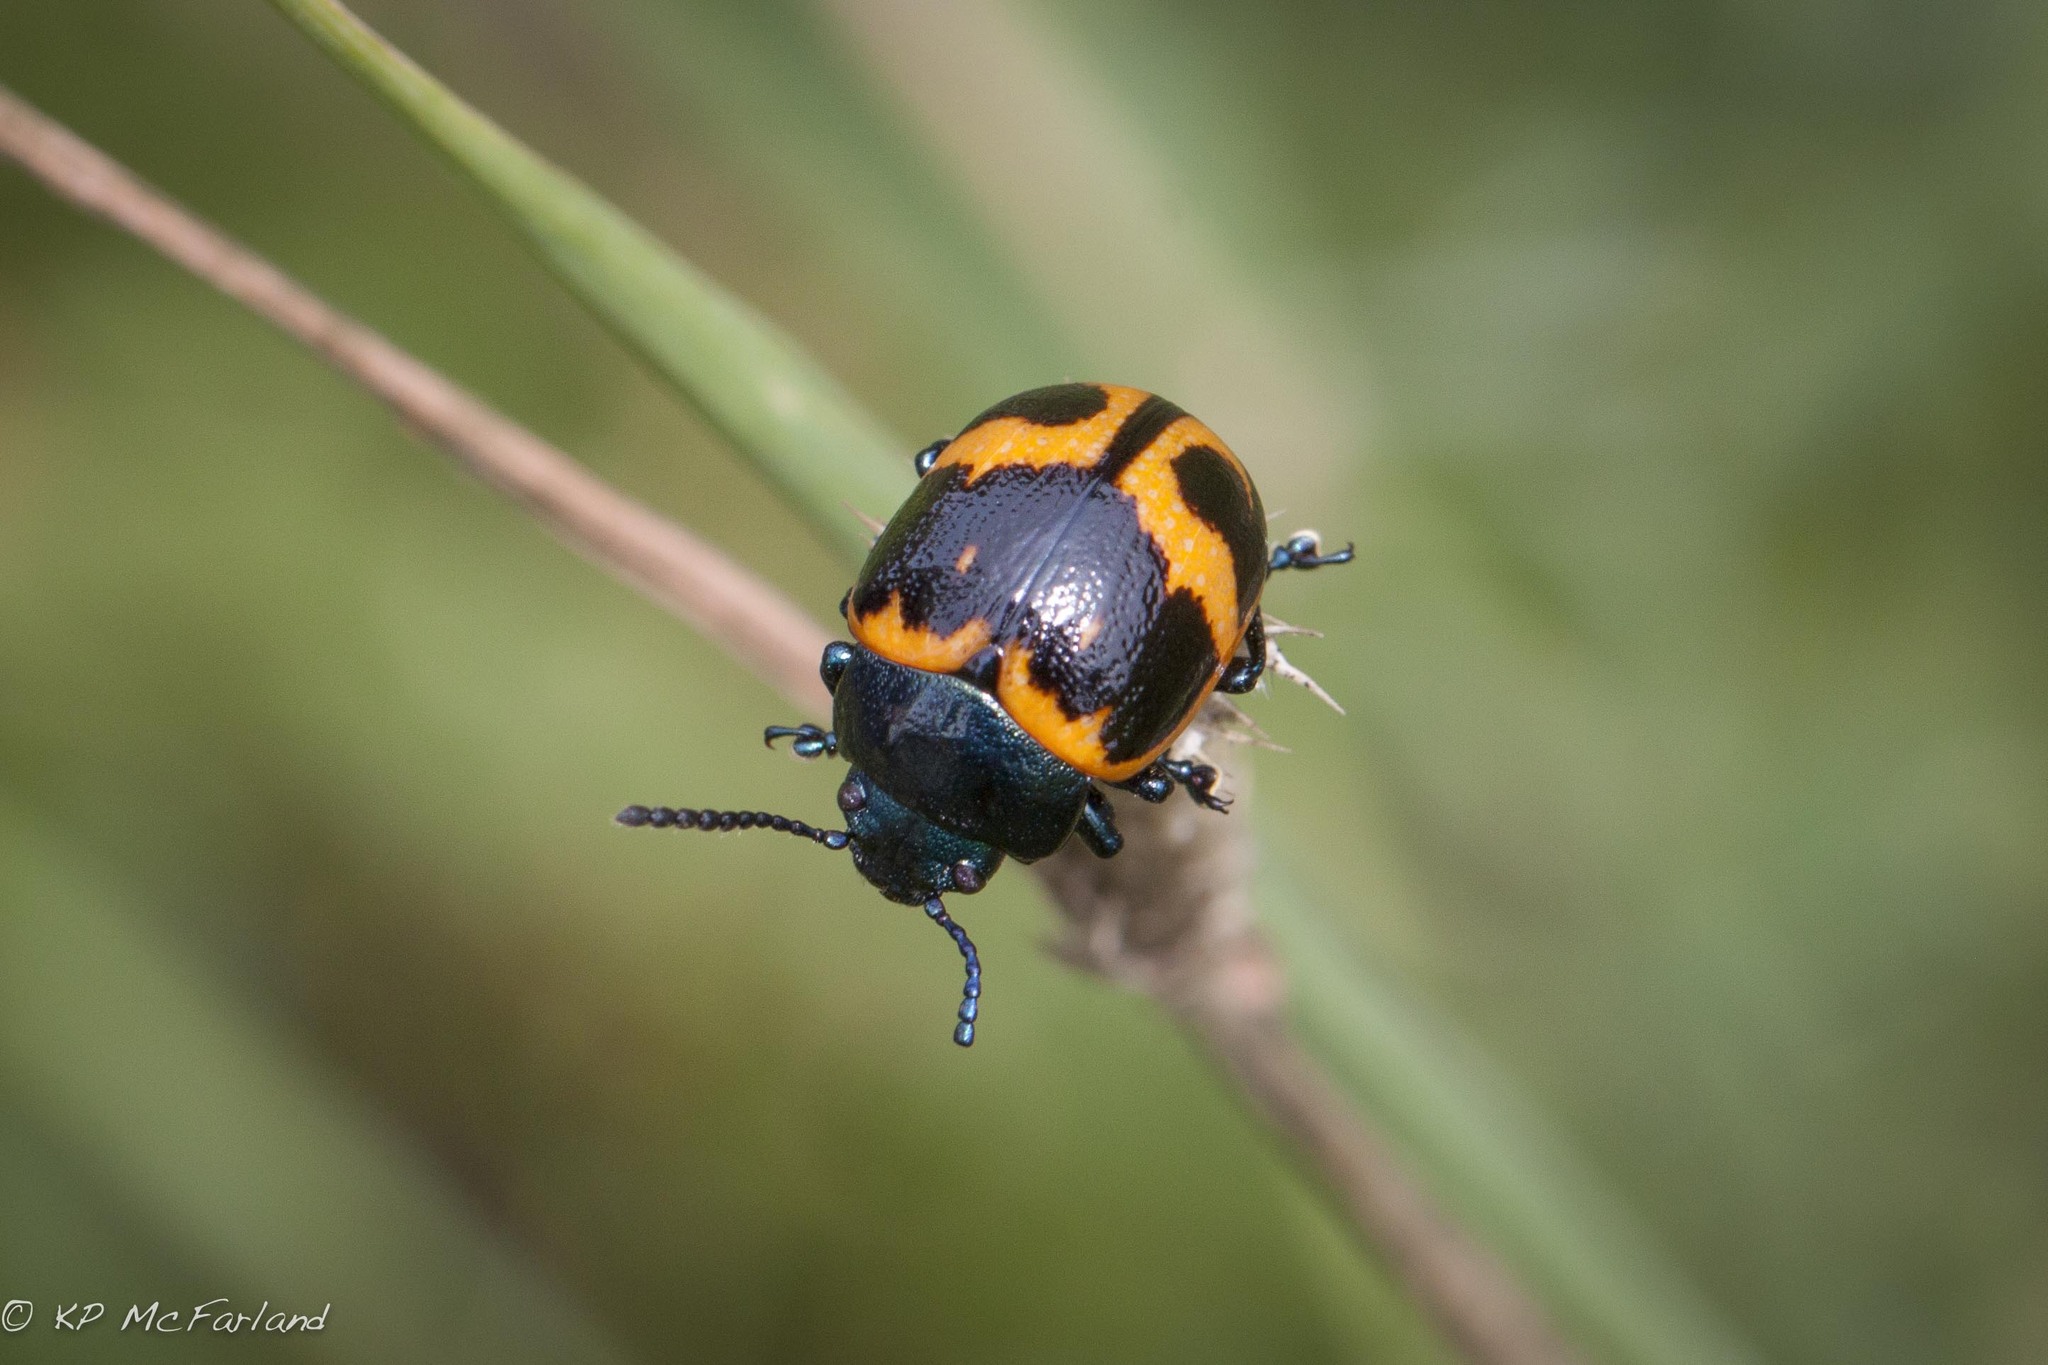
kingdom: Animalia
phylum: Arthropoda
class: Insecta
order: Coleoptera
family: Chrysomelidae
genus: Labidomera
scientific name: Labidomera clivicollis
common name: Swamp milkweed leaf beetle
